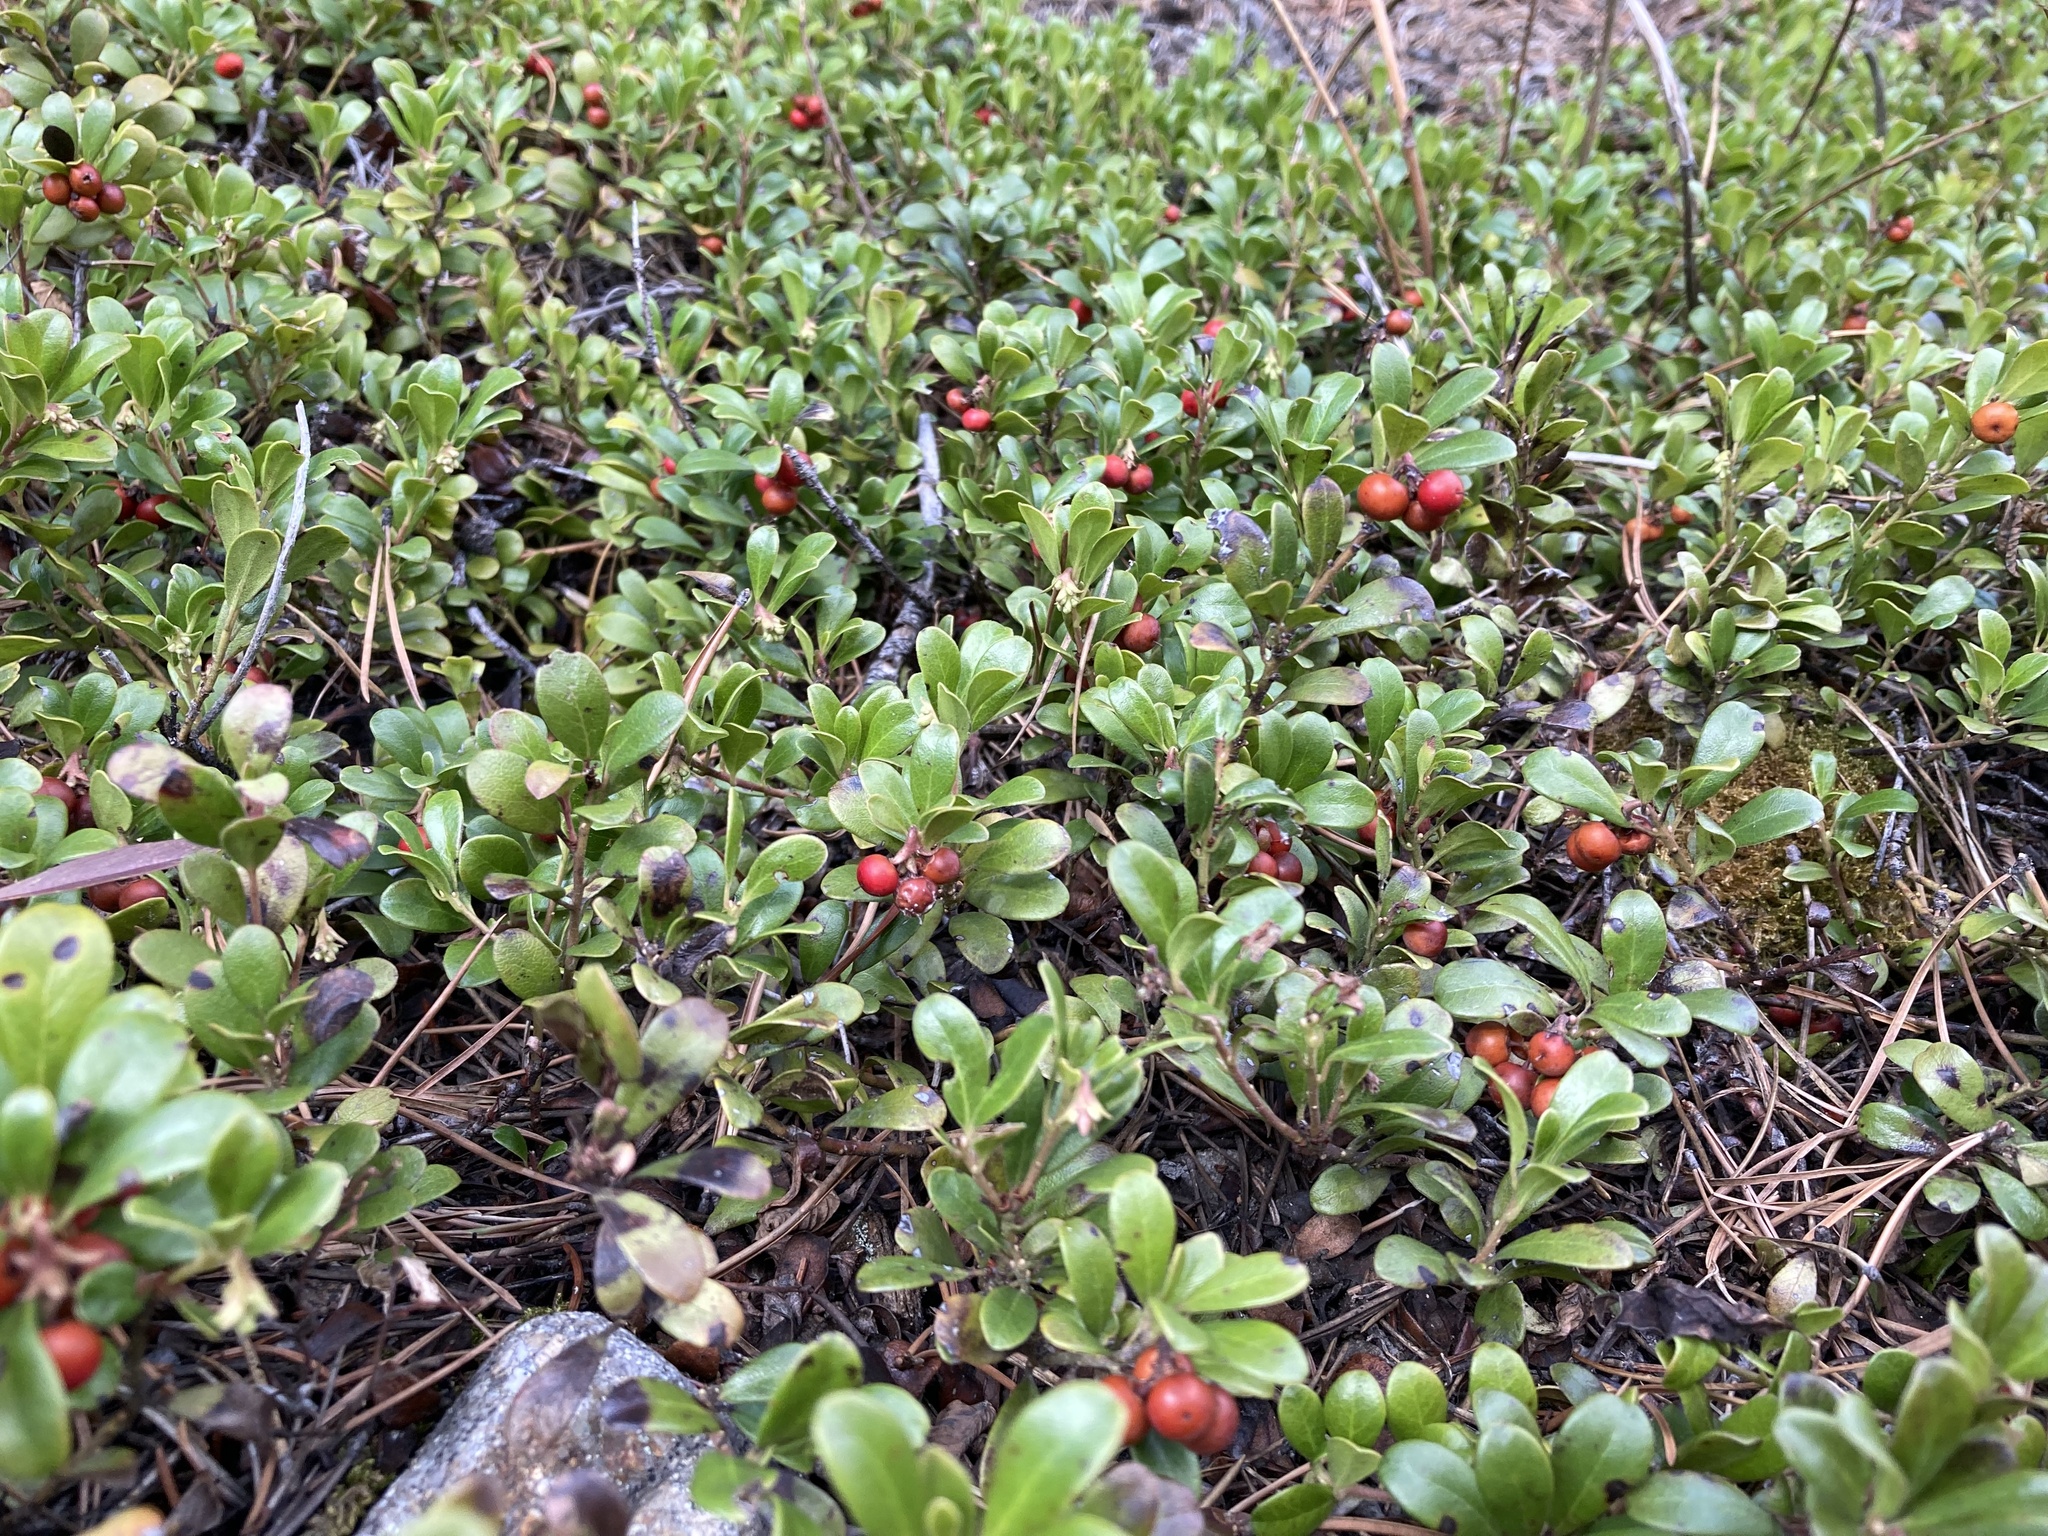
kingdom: Plantae
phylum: Tracheophyta
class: Magnoliopsida
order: Ericales
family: Ericaceae
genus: Arctostaphylos
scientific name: Arctostaphylos uva-ursi
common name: Bearberry
